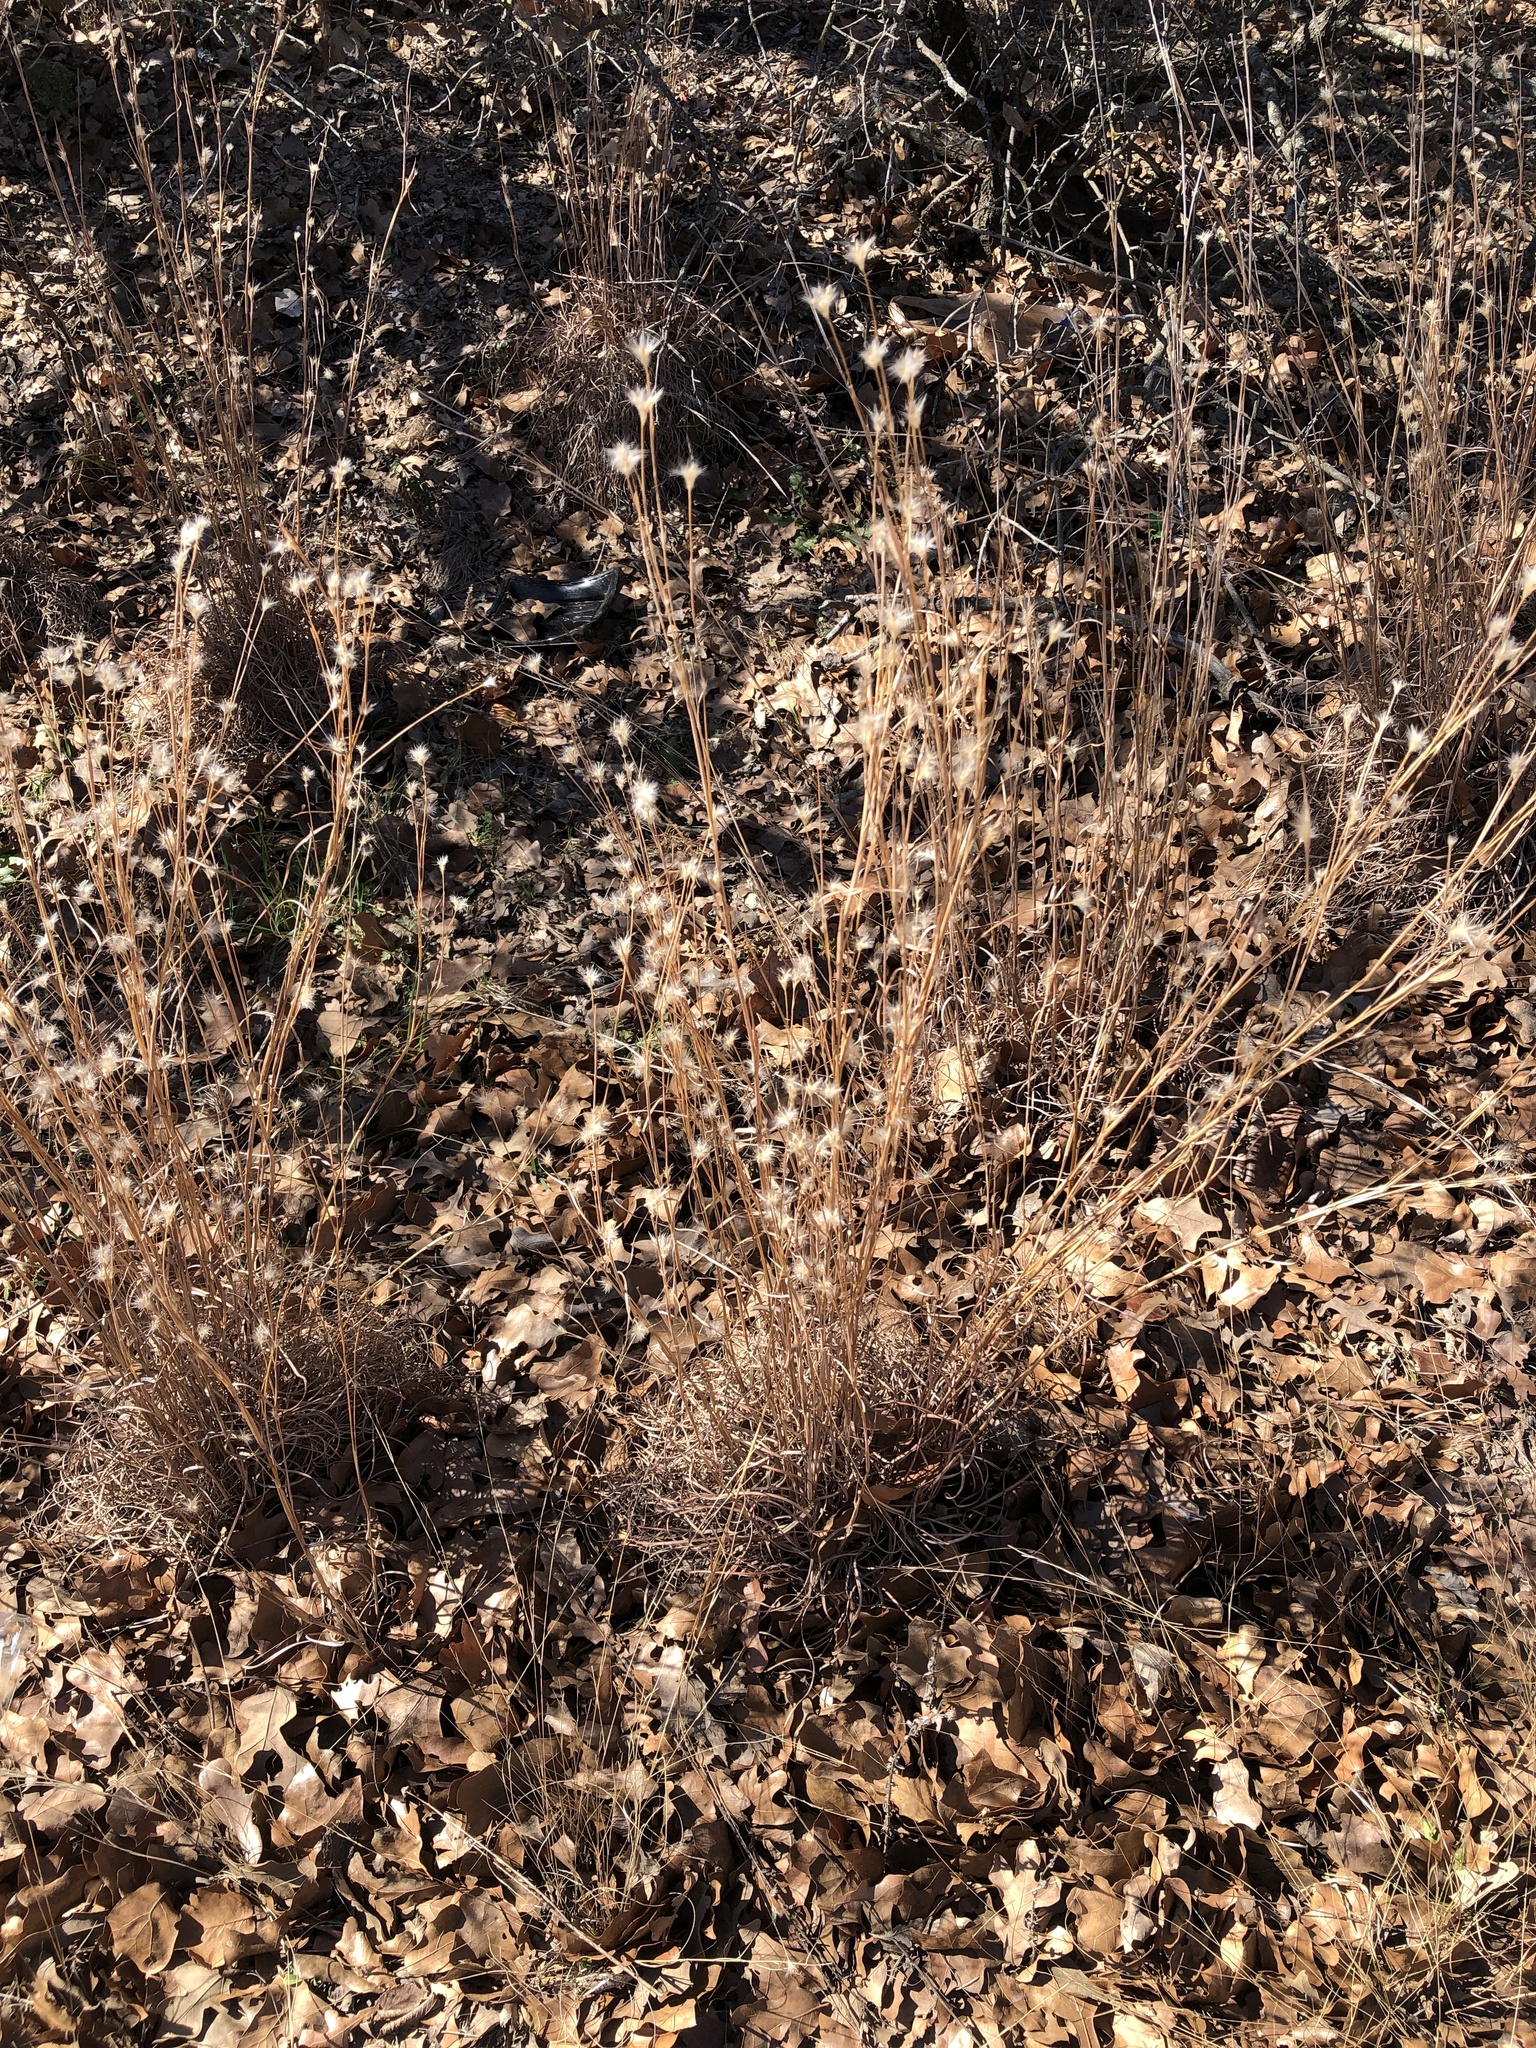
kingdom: Plantae
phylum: Tracheophyta
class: Liliopsida
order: Poales
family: Poaceae
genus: Andropogon
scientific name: Andropogon ternarius
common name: Split bluestem
